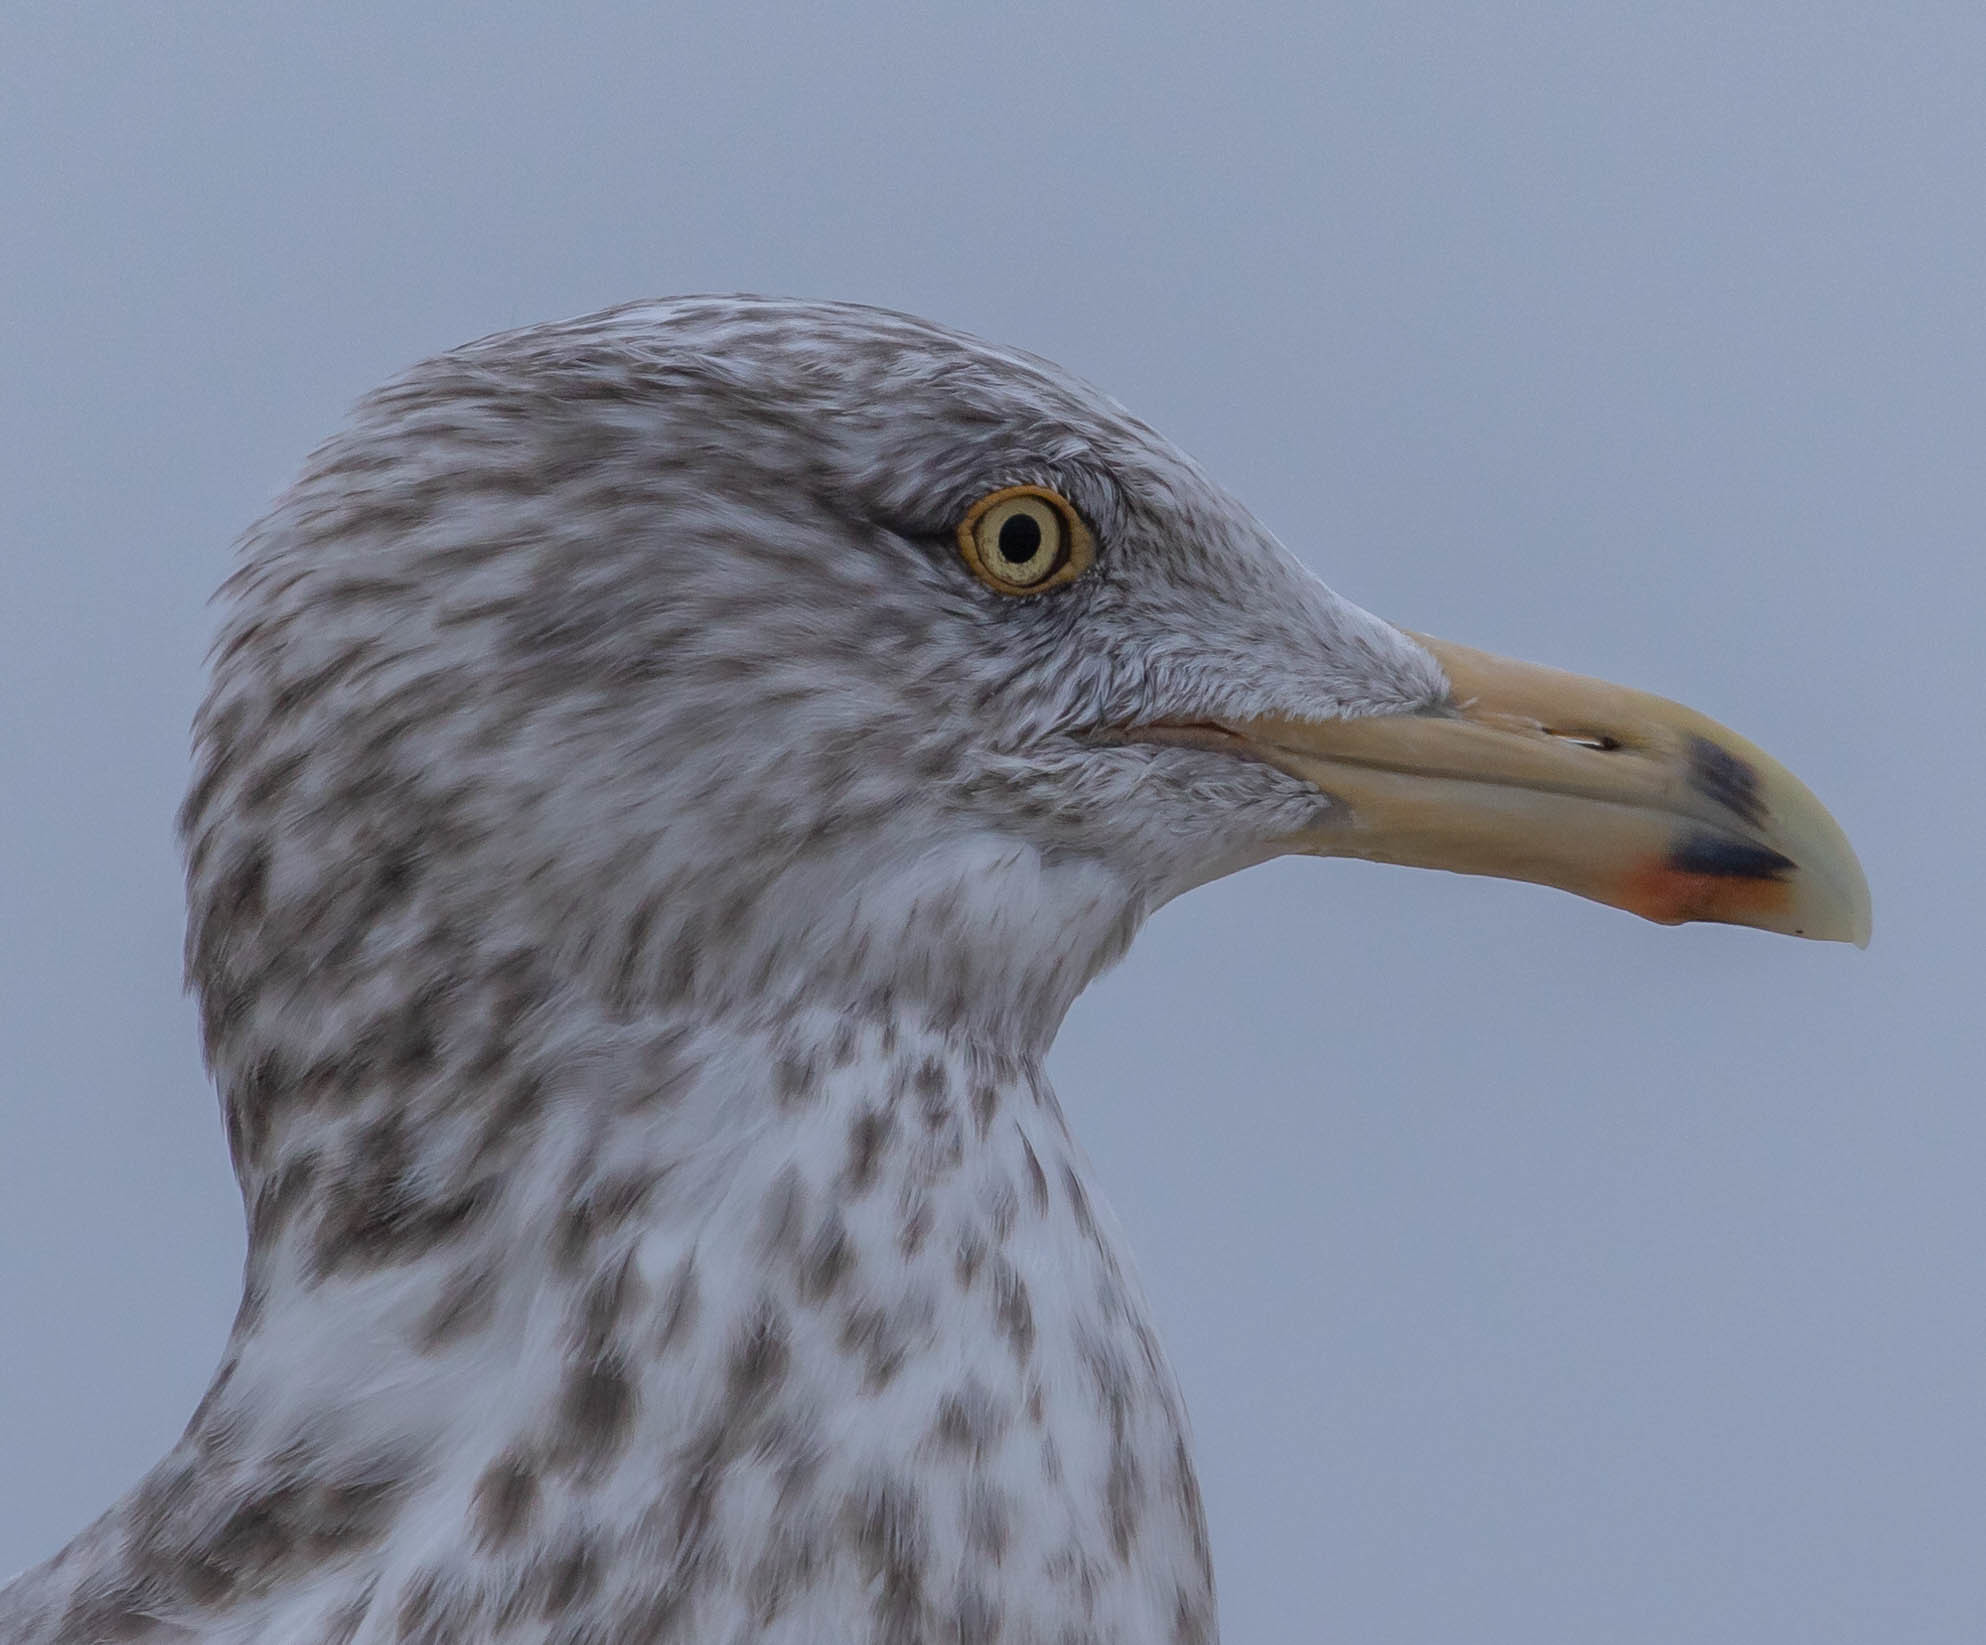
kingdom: Animalia
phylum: Chordata
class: Aves
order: Charadriiformes
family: Laridae
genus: Larus
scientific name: Larus argentatus
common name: Herring gull
